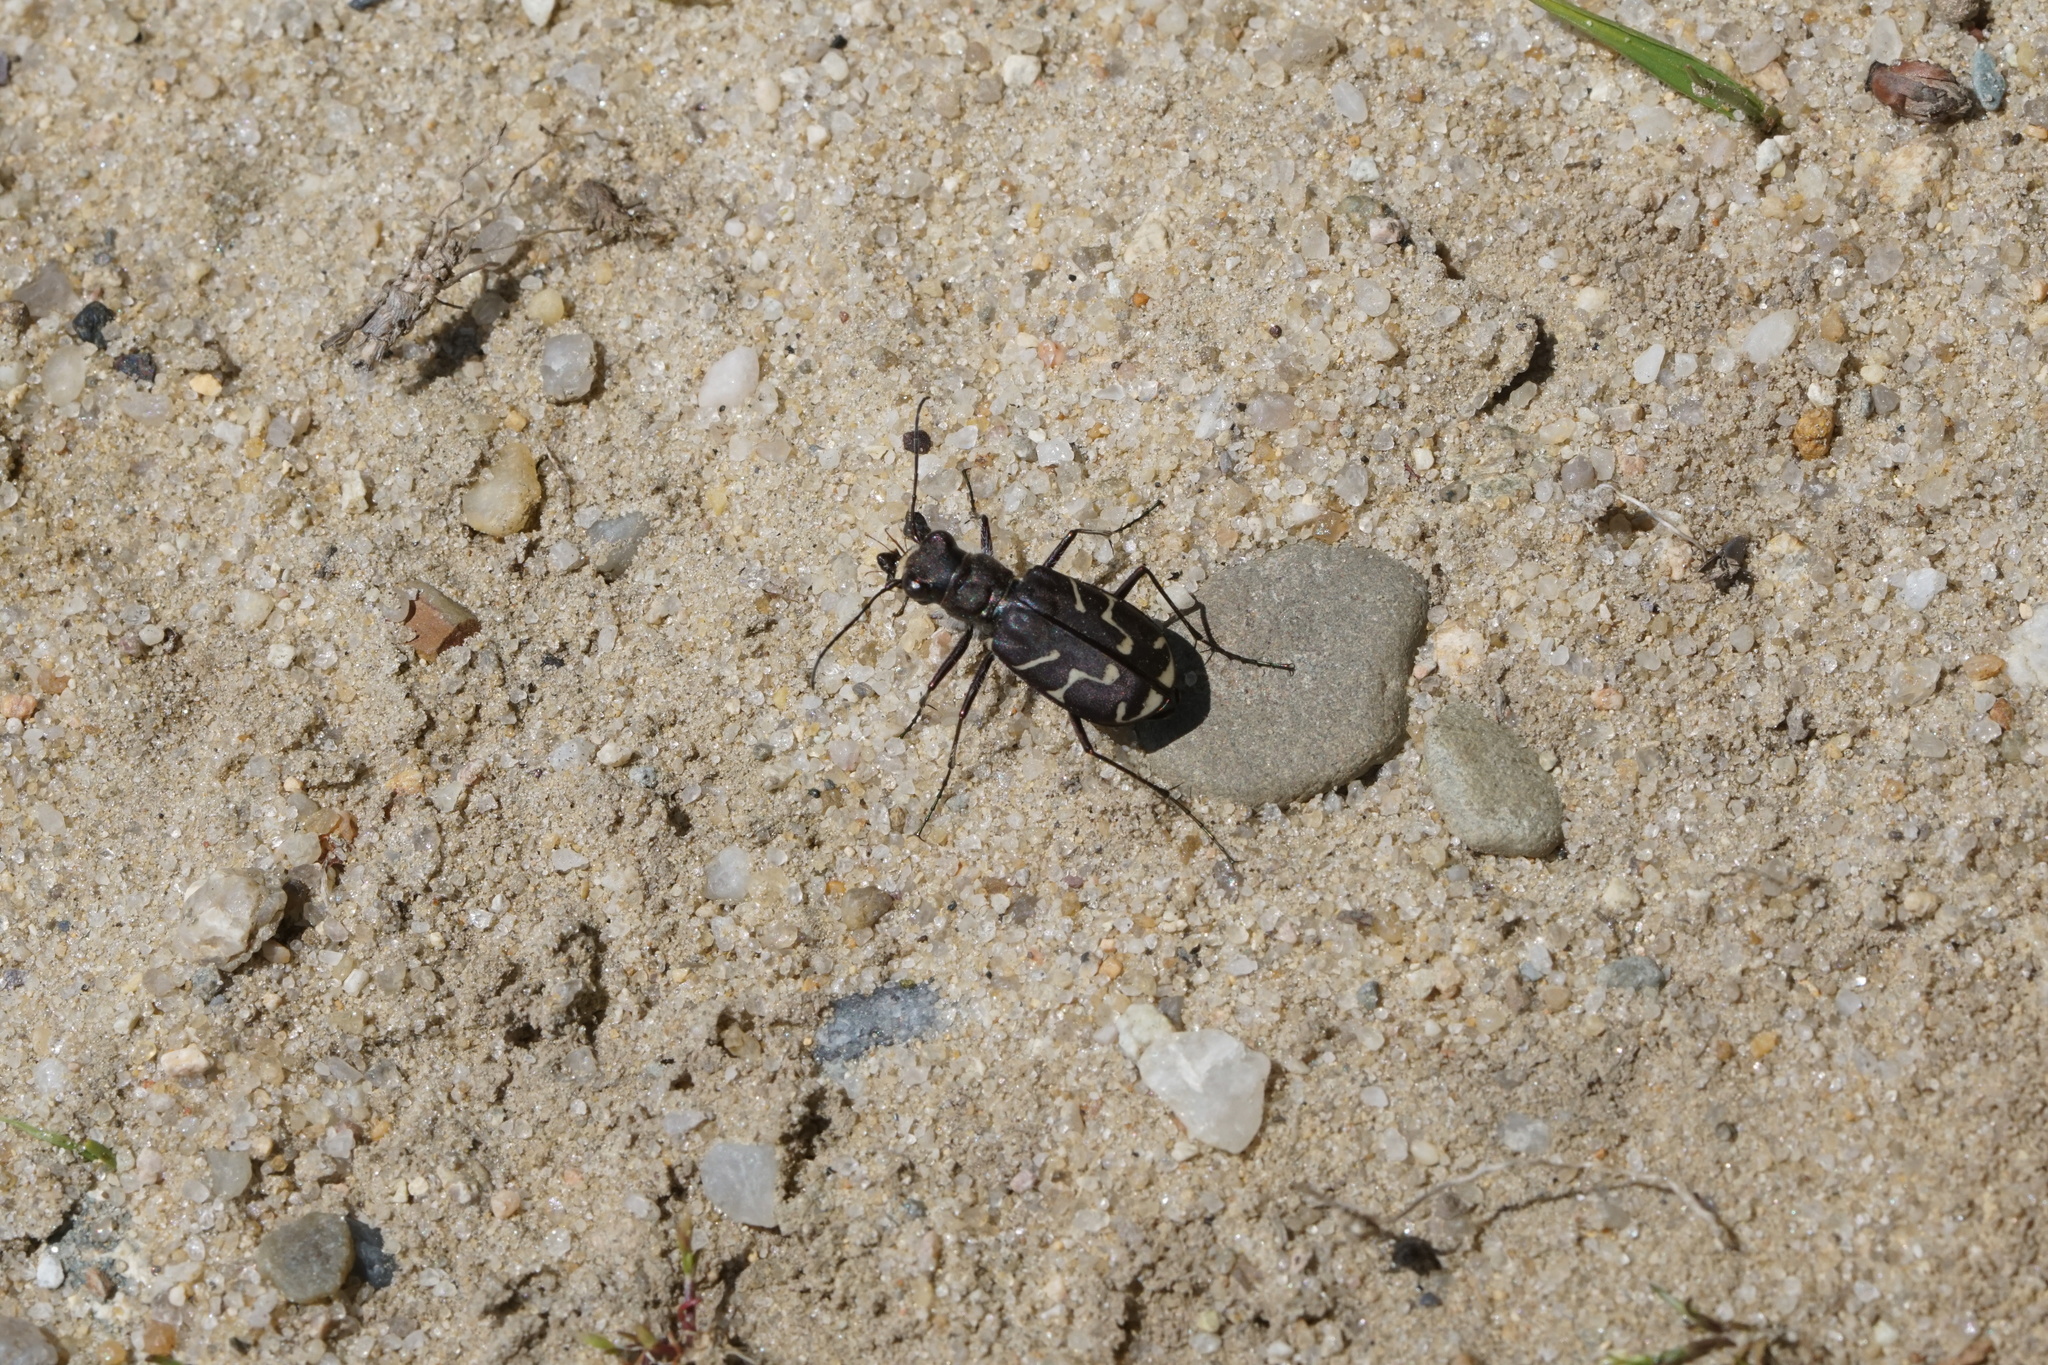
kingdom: Animalia
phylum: Arthropoda
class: Insecta
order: Coleoptera
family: Carabidae
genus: Cicindela
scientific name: Cicindela tranquebarica
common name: Oblique-lined tiger beetle
